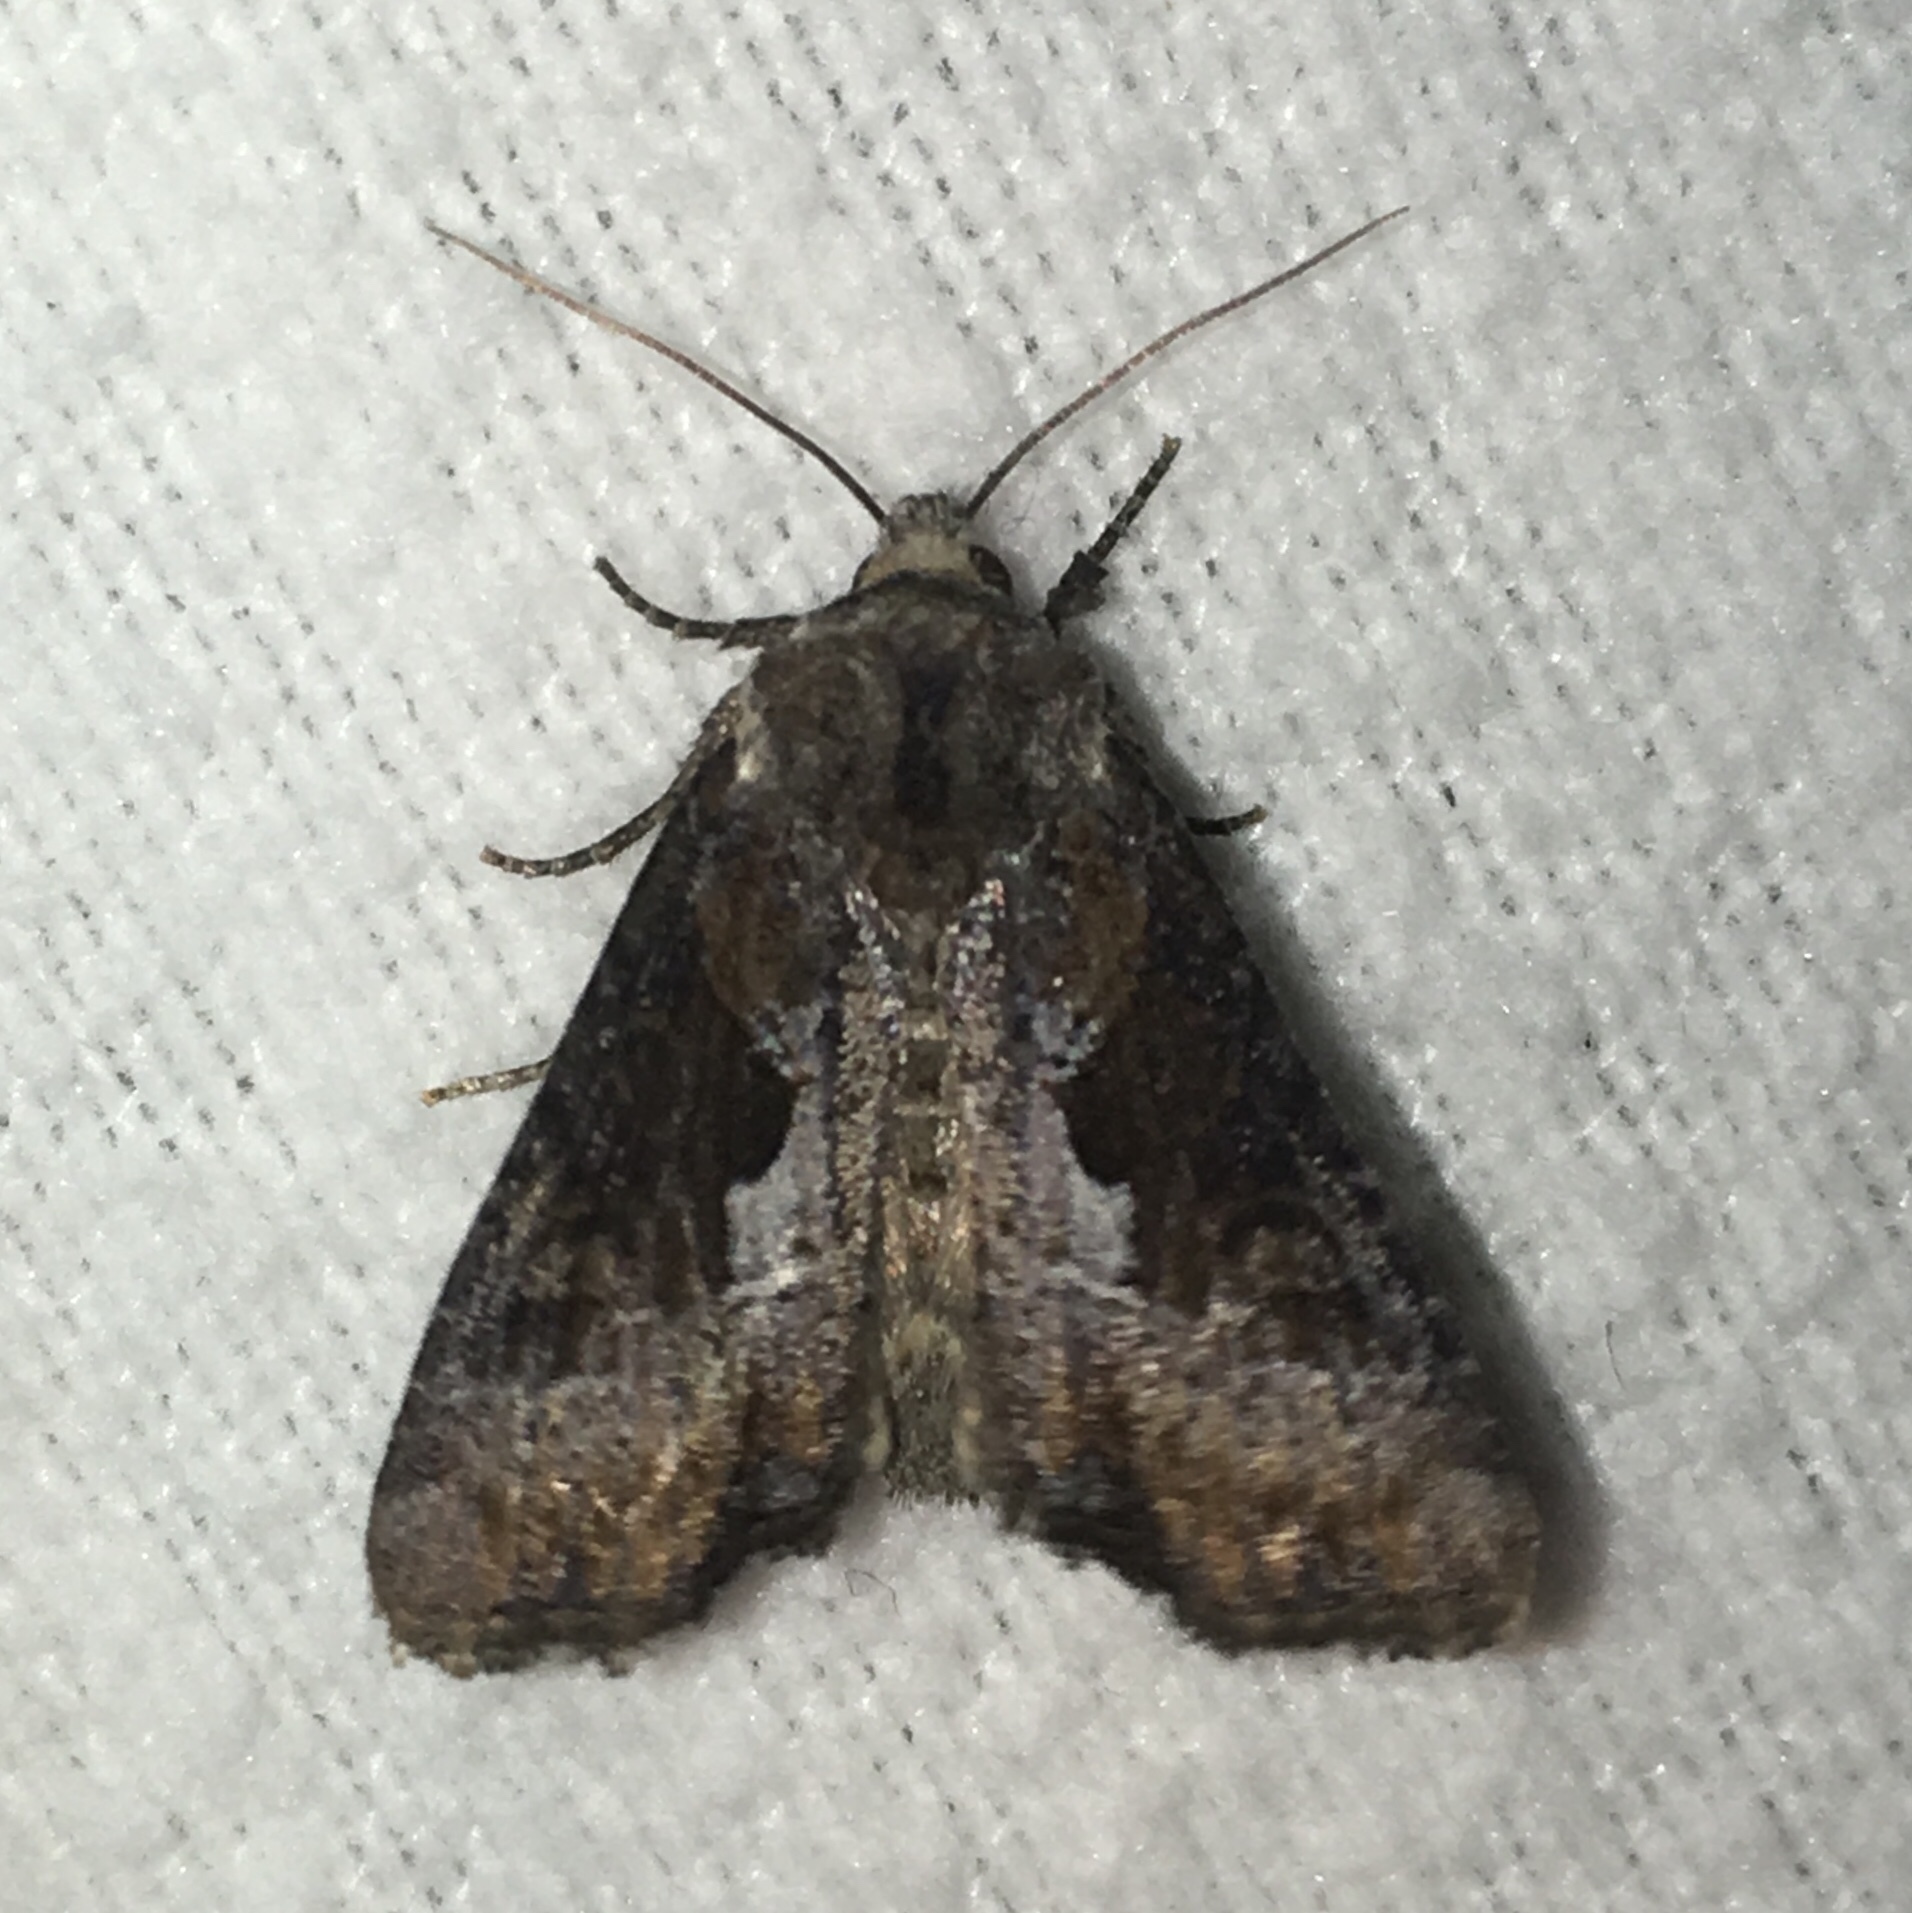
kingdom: Animalia
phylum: Arthropoda
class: Insecta
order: Lepidoptera
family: Noctuidae
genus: Lateroligia
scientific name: Lateroligia ophiogramma
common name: Double lobed
